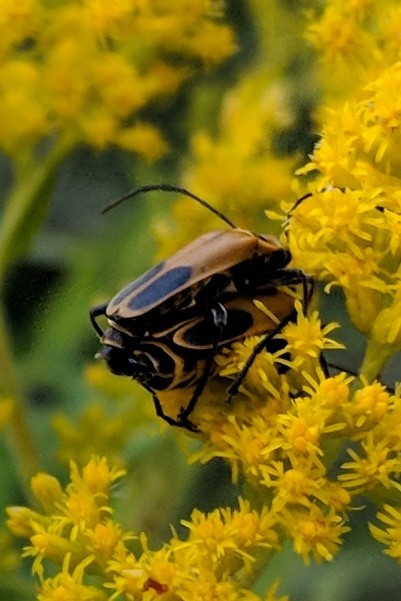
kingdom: Animalia
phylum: Arthropoda
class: Insecta
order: Coleoptera
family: Cantharidae
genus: Chauliognathus
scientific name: Chauliognathus pensylvanicus
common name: Goldenrod soldier beetle
